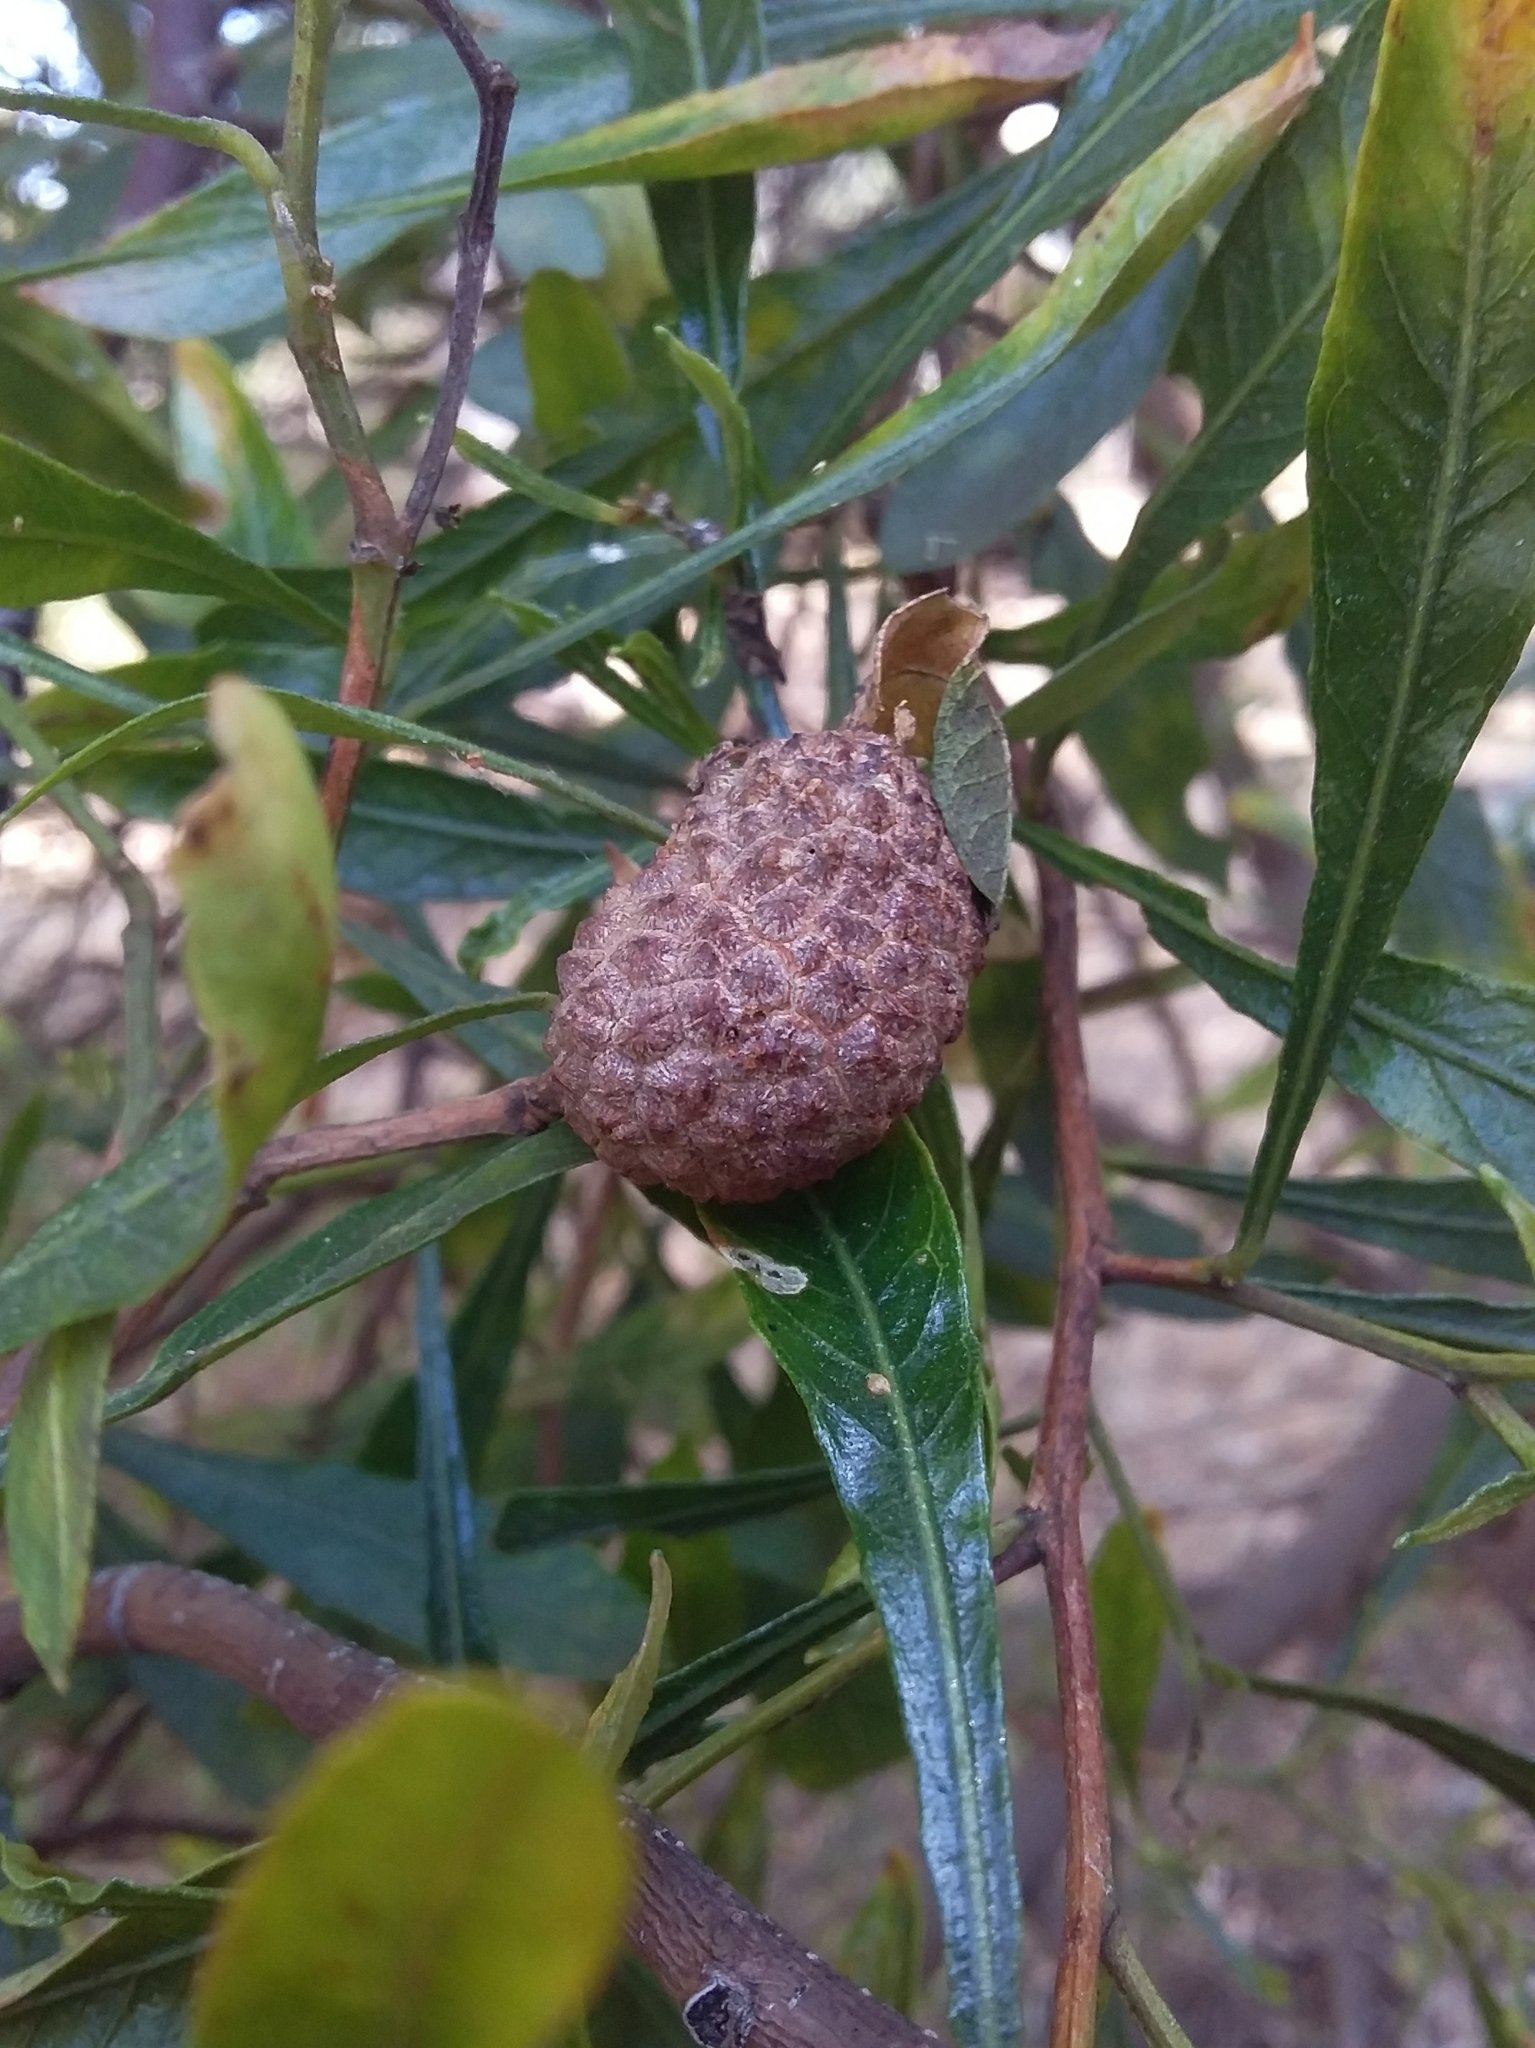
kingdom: Animalia
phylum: Arthropoda
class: Insecta
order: Diptera
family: Cecidomyiidae
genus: Asphondylia
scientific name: Asphondylia dodonaeae
